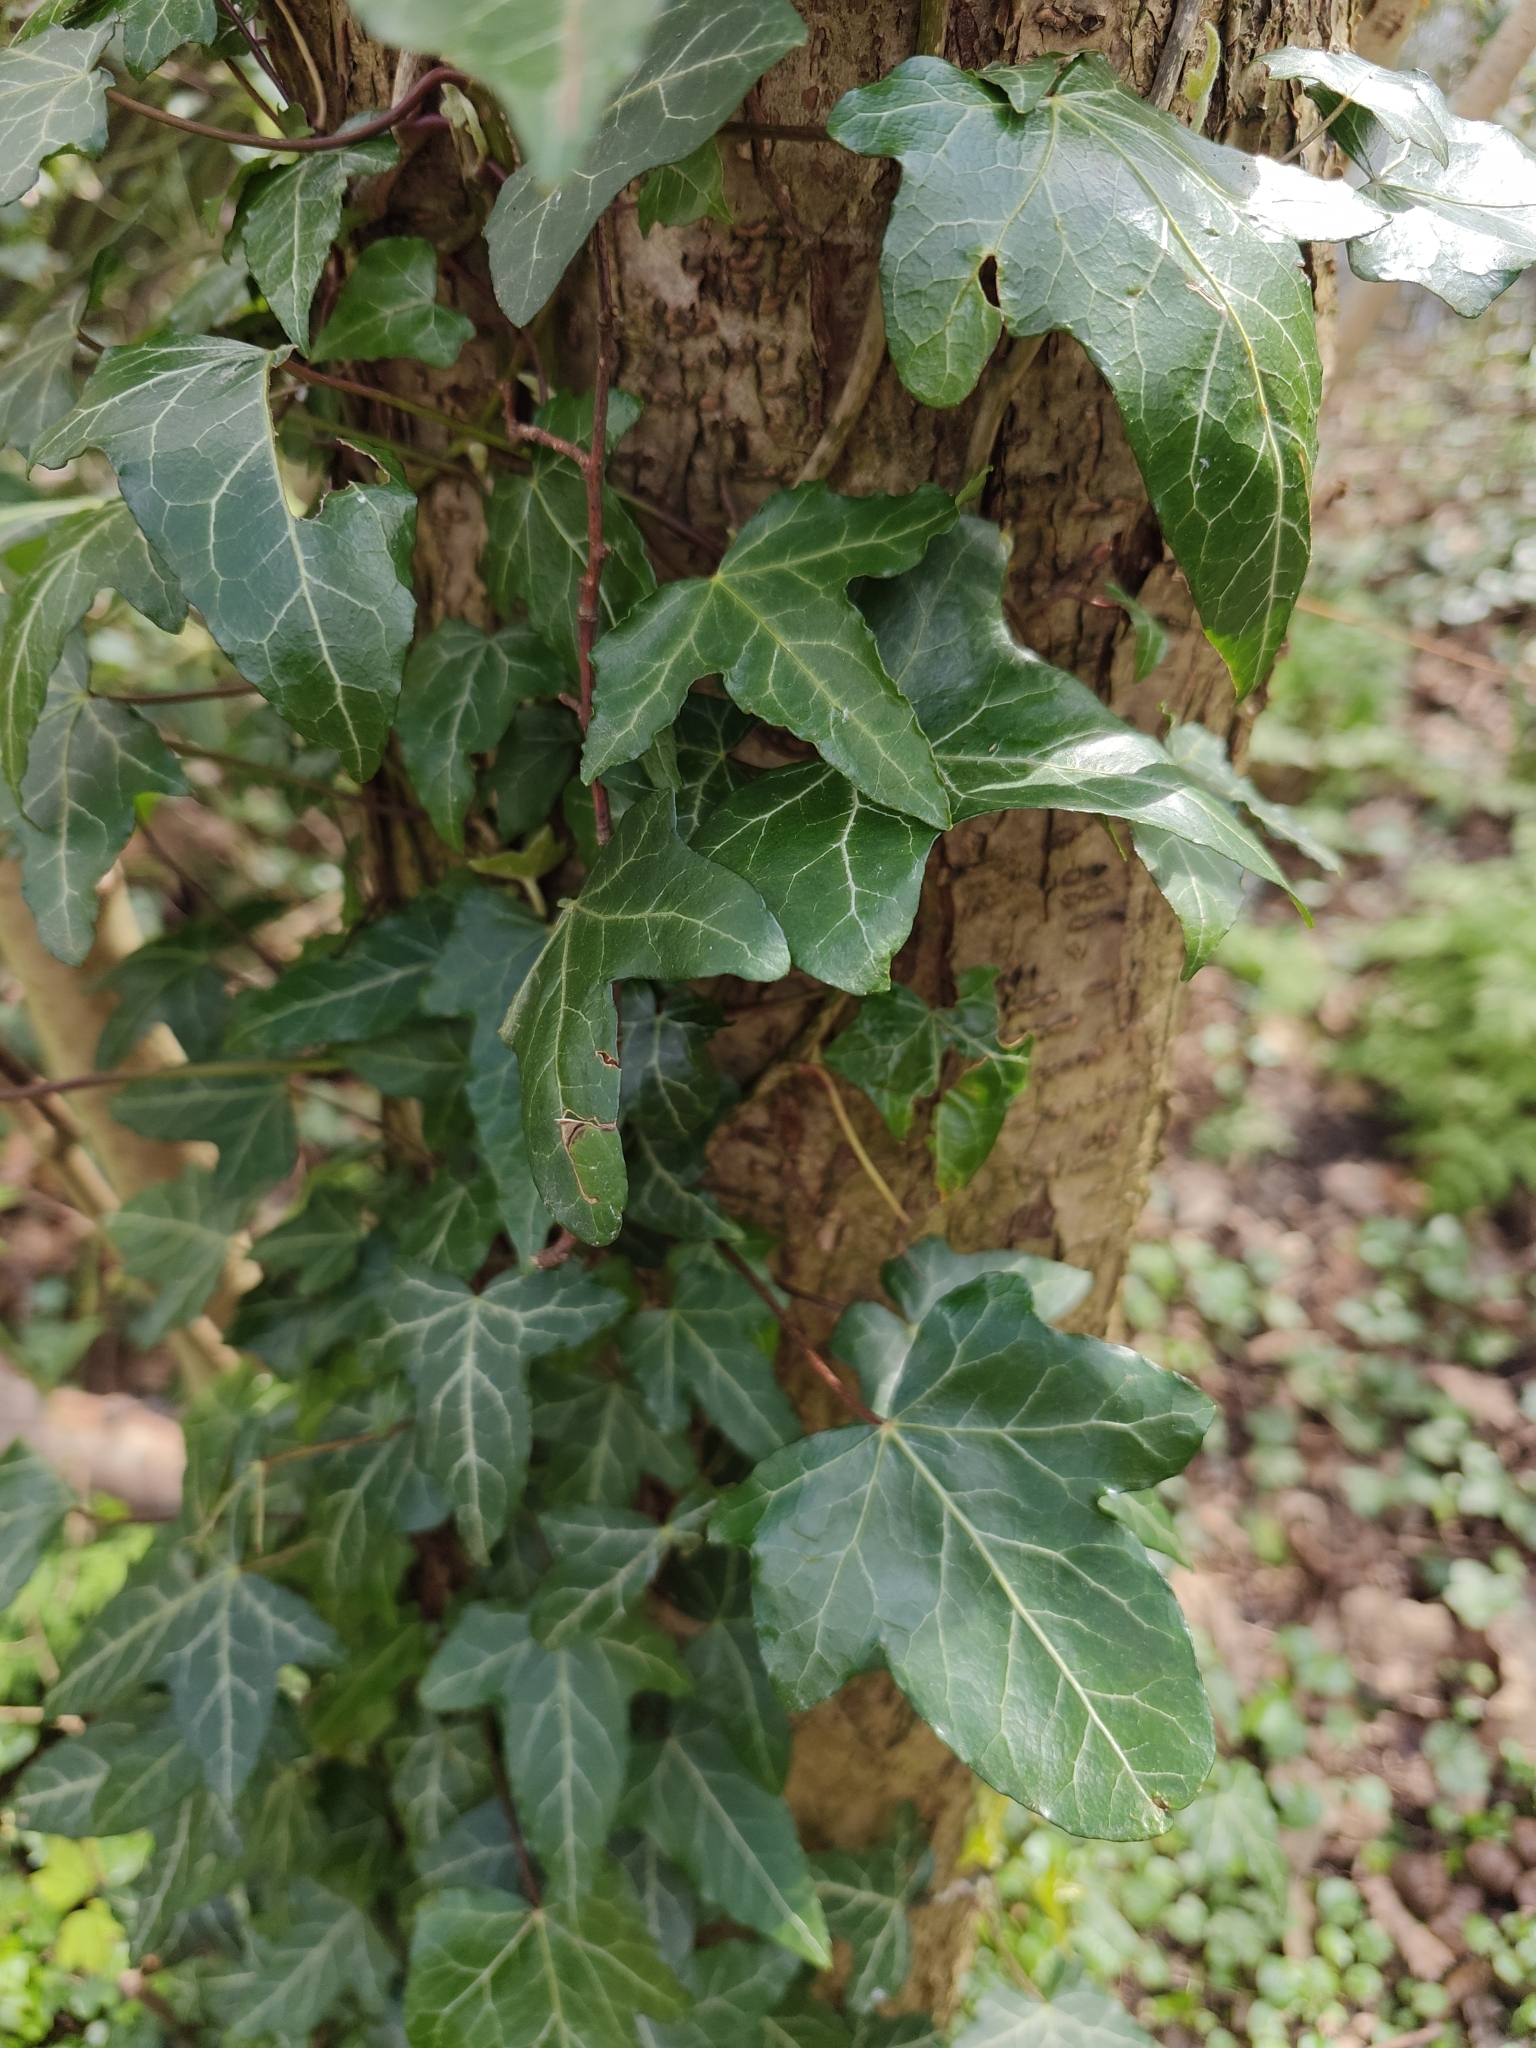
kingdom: Plantae
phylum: Tracheophyta
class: Magnoliopsida
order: Apiales
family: Araliaceae
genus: Hedera
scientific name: Hedera helix
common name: Ivy
